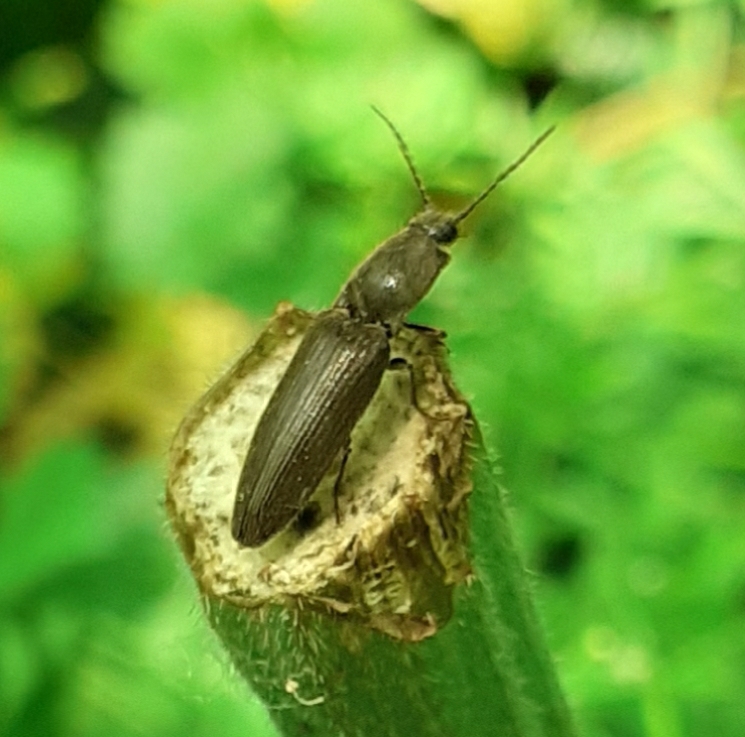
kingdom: Animalia
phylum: Arthropoda
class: Insecta
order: Coleoptera
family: Elateridae
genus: Athous
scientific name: Athous haemorrhoidalis
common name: Red-brown click beetle
